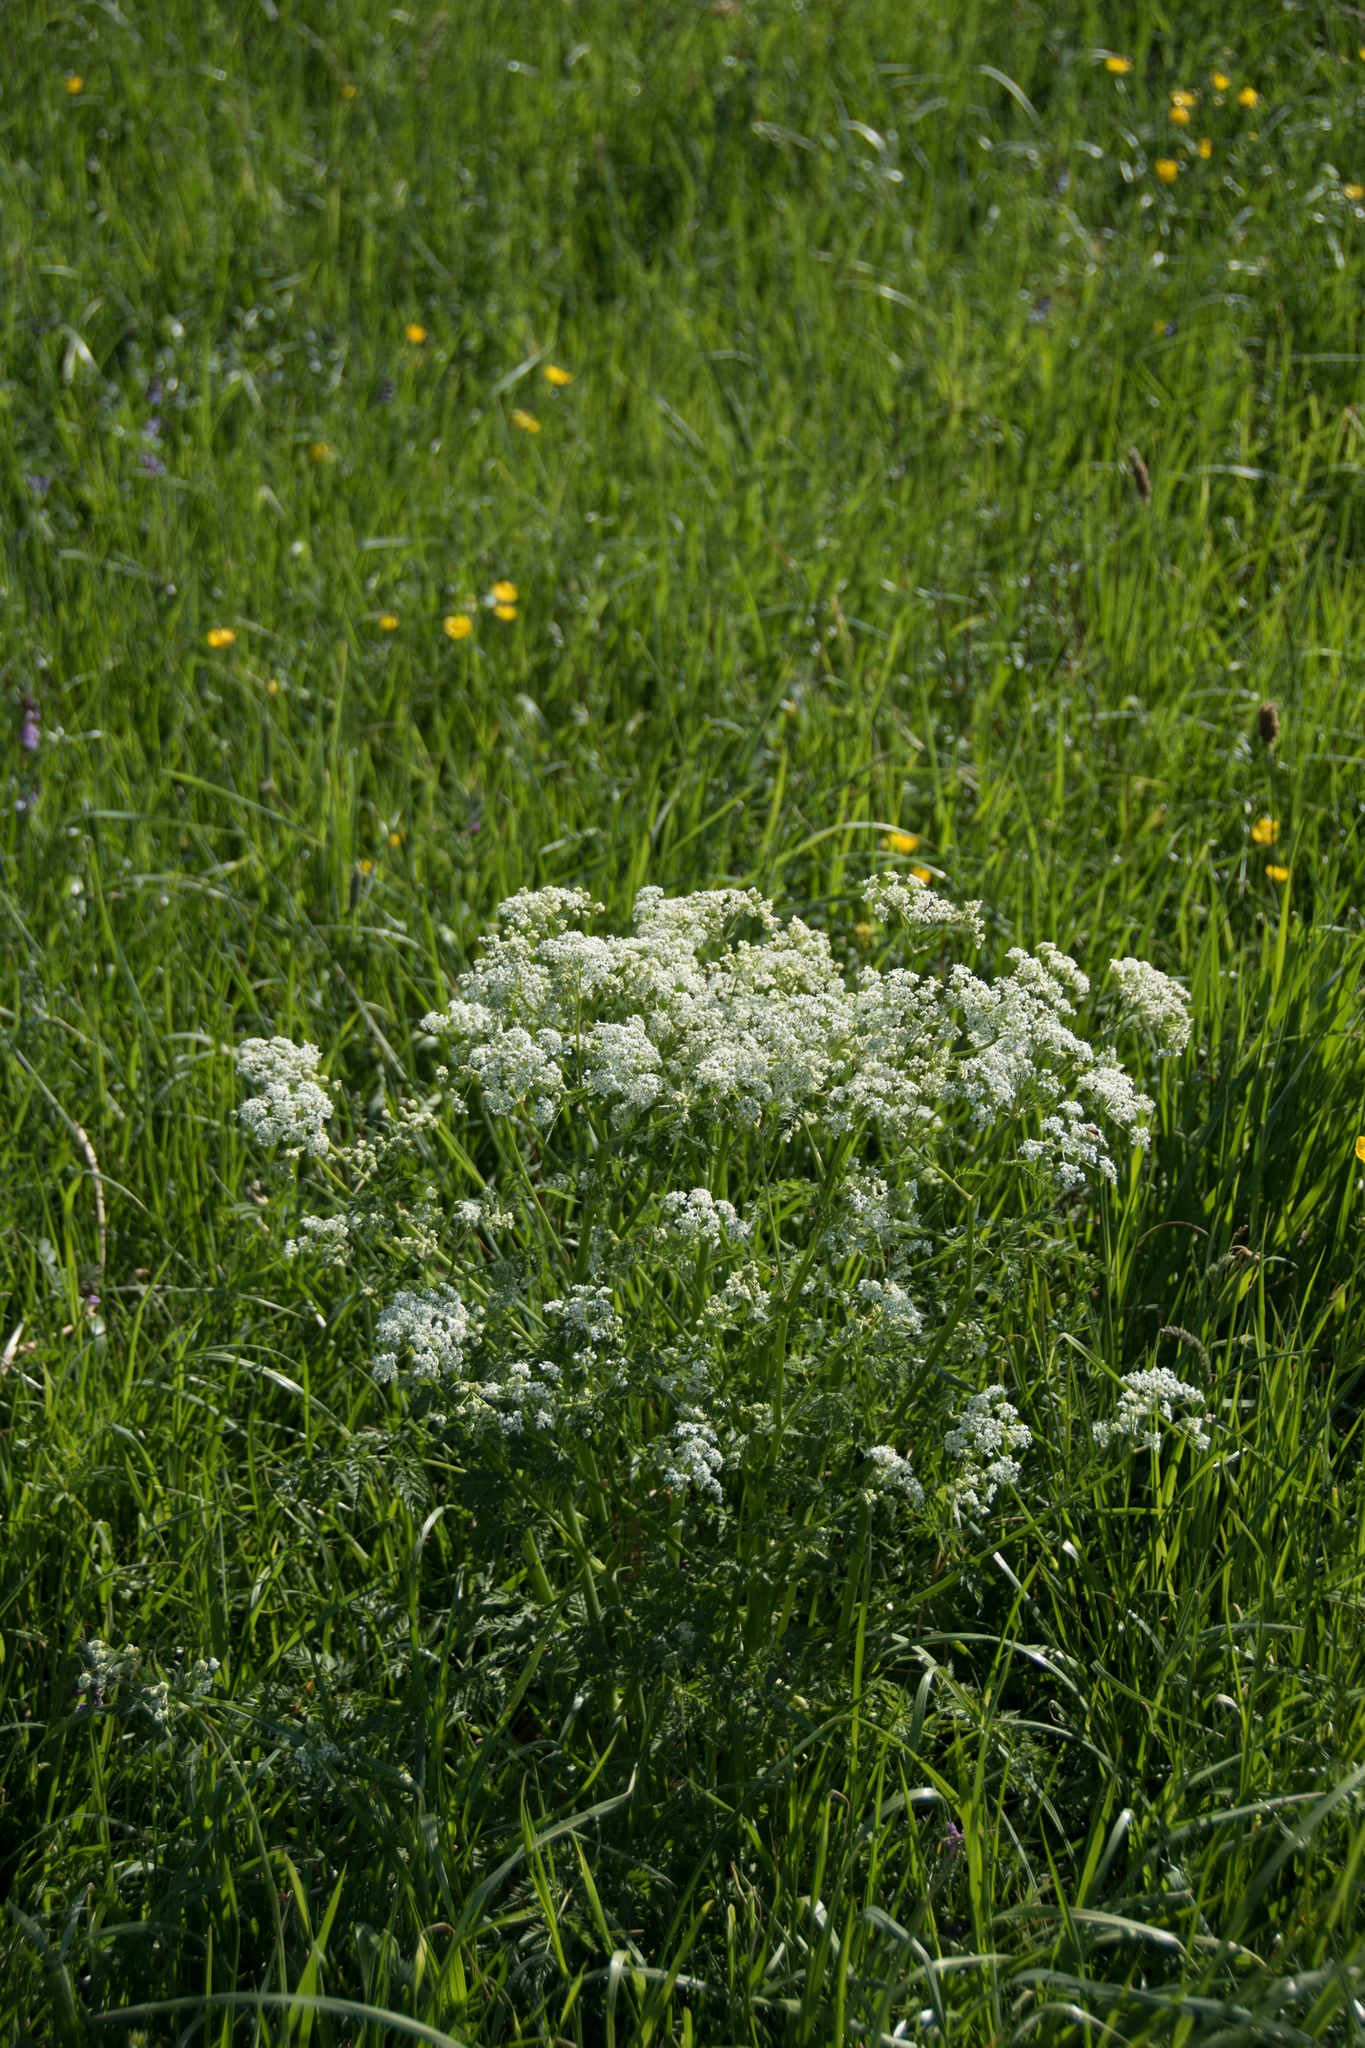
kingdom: Plantae
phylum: Tracheophyta
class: Magnoliopsida
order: Apiales
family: Apiaceae
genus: Anthriscus
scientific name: Anthriscus sylvestris
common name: Cow parsley
